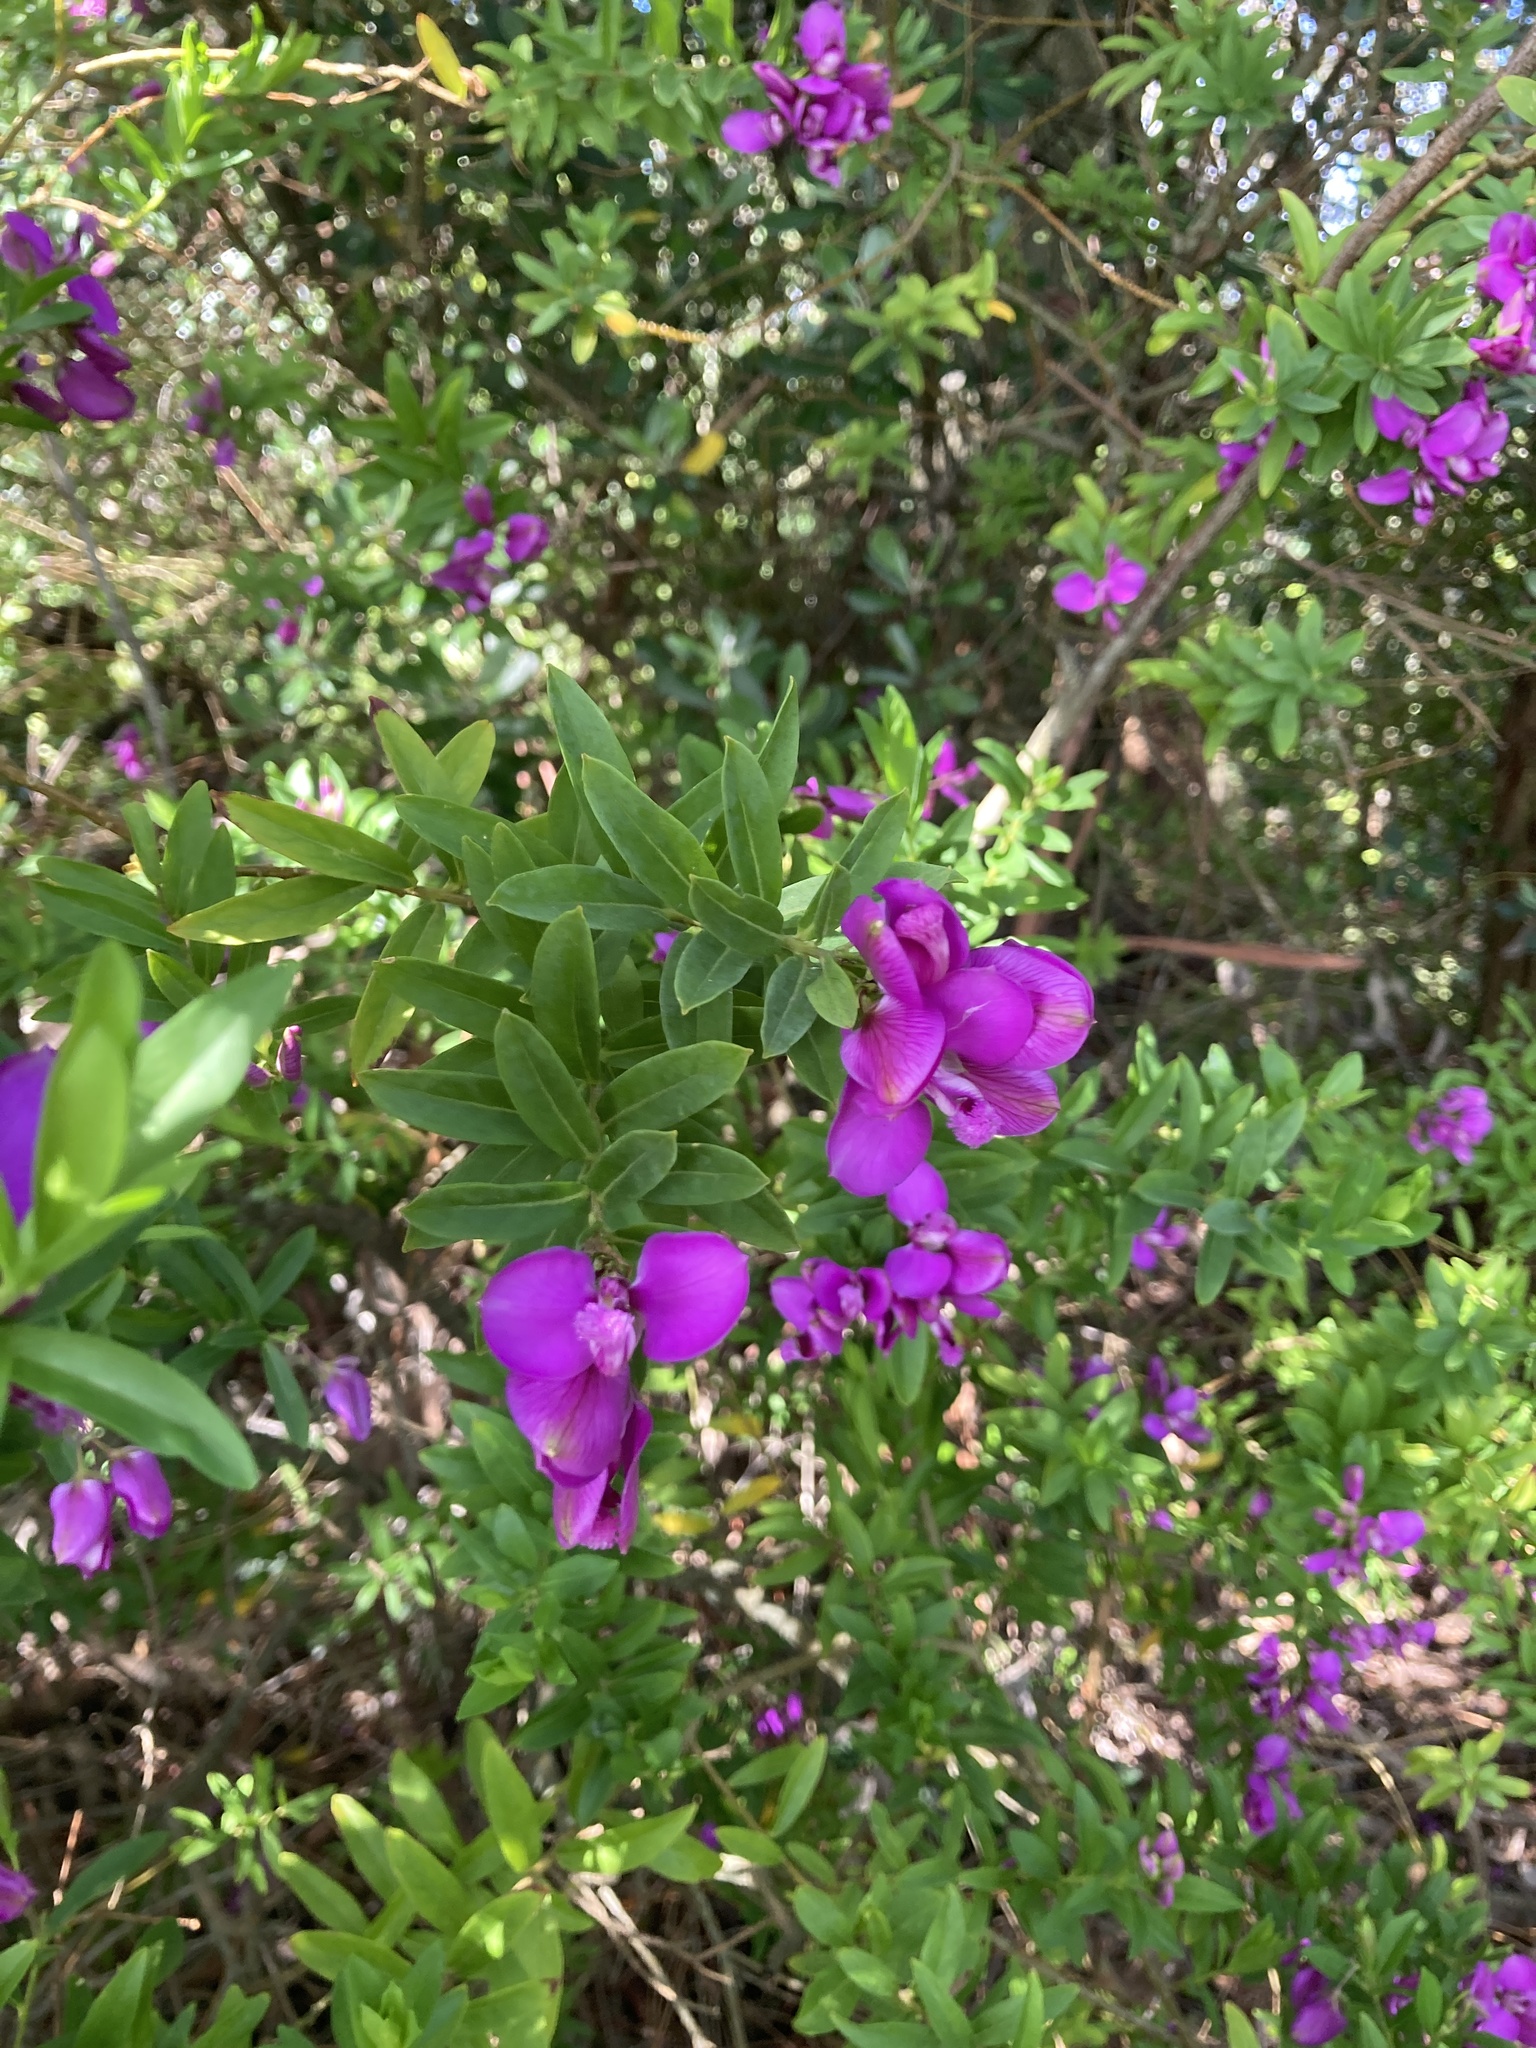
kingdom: Plantae
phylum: Tracheophyta
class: Magnoliopsida
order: Fabales
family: Polygalaceae
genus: Polygala
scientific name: Polygala myrtifolia
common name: Myrtle-leaf milkwort
